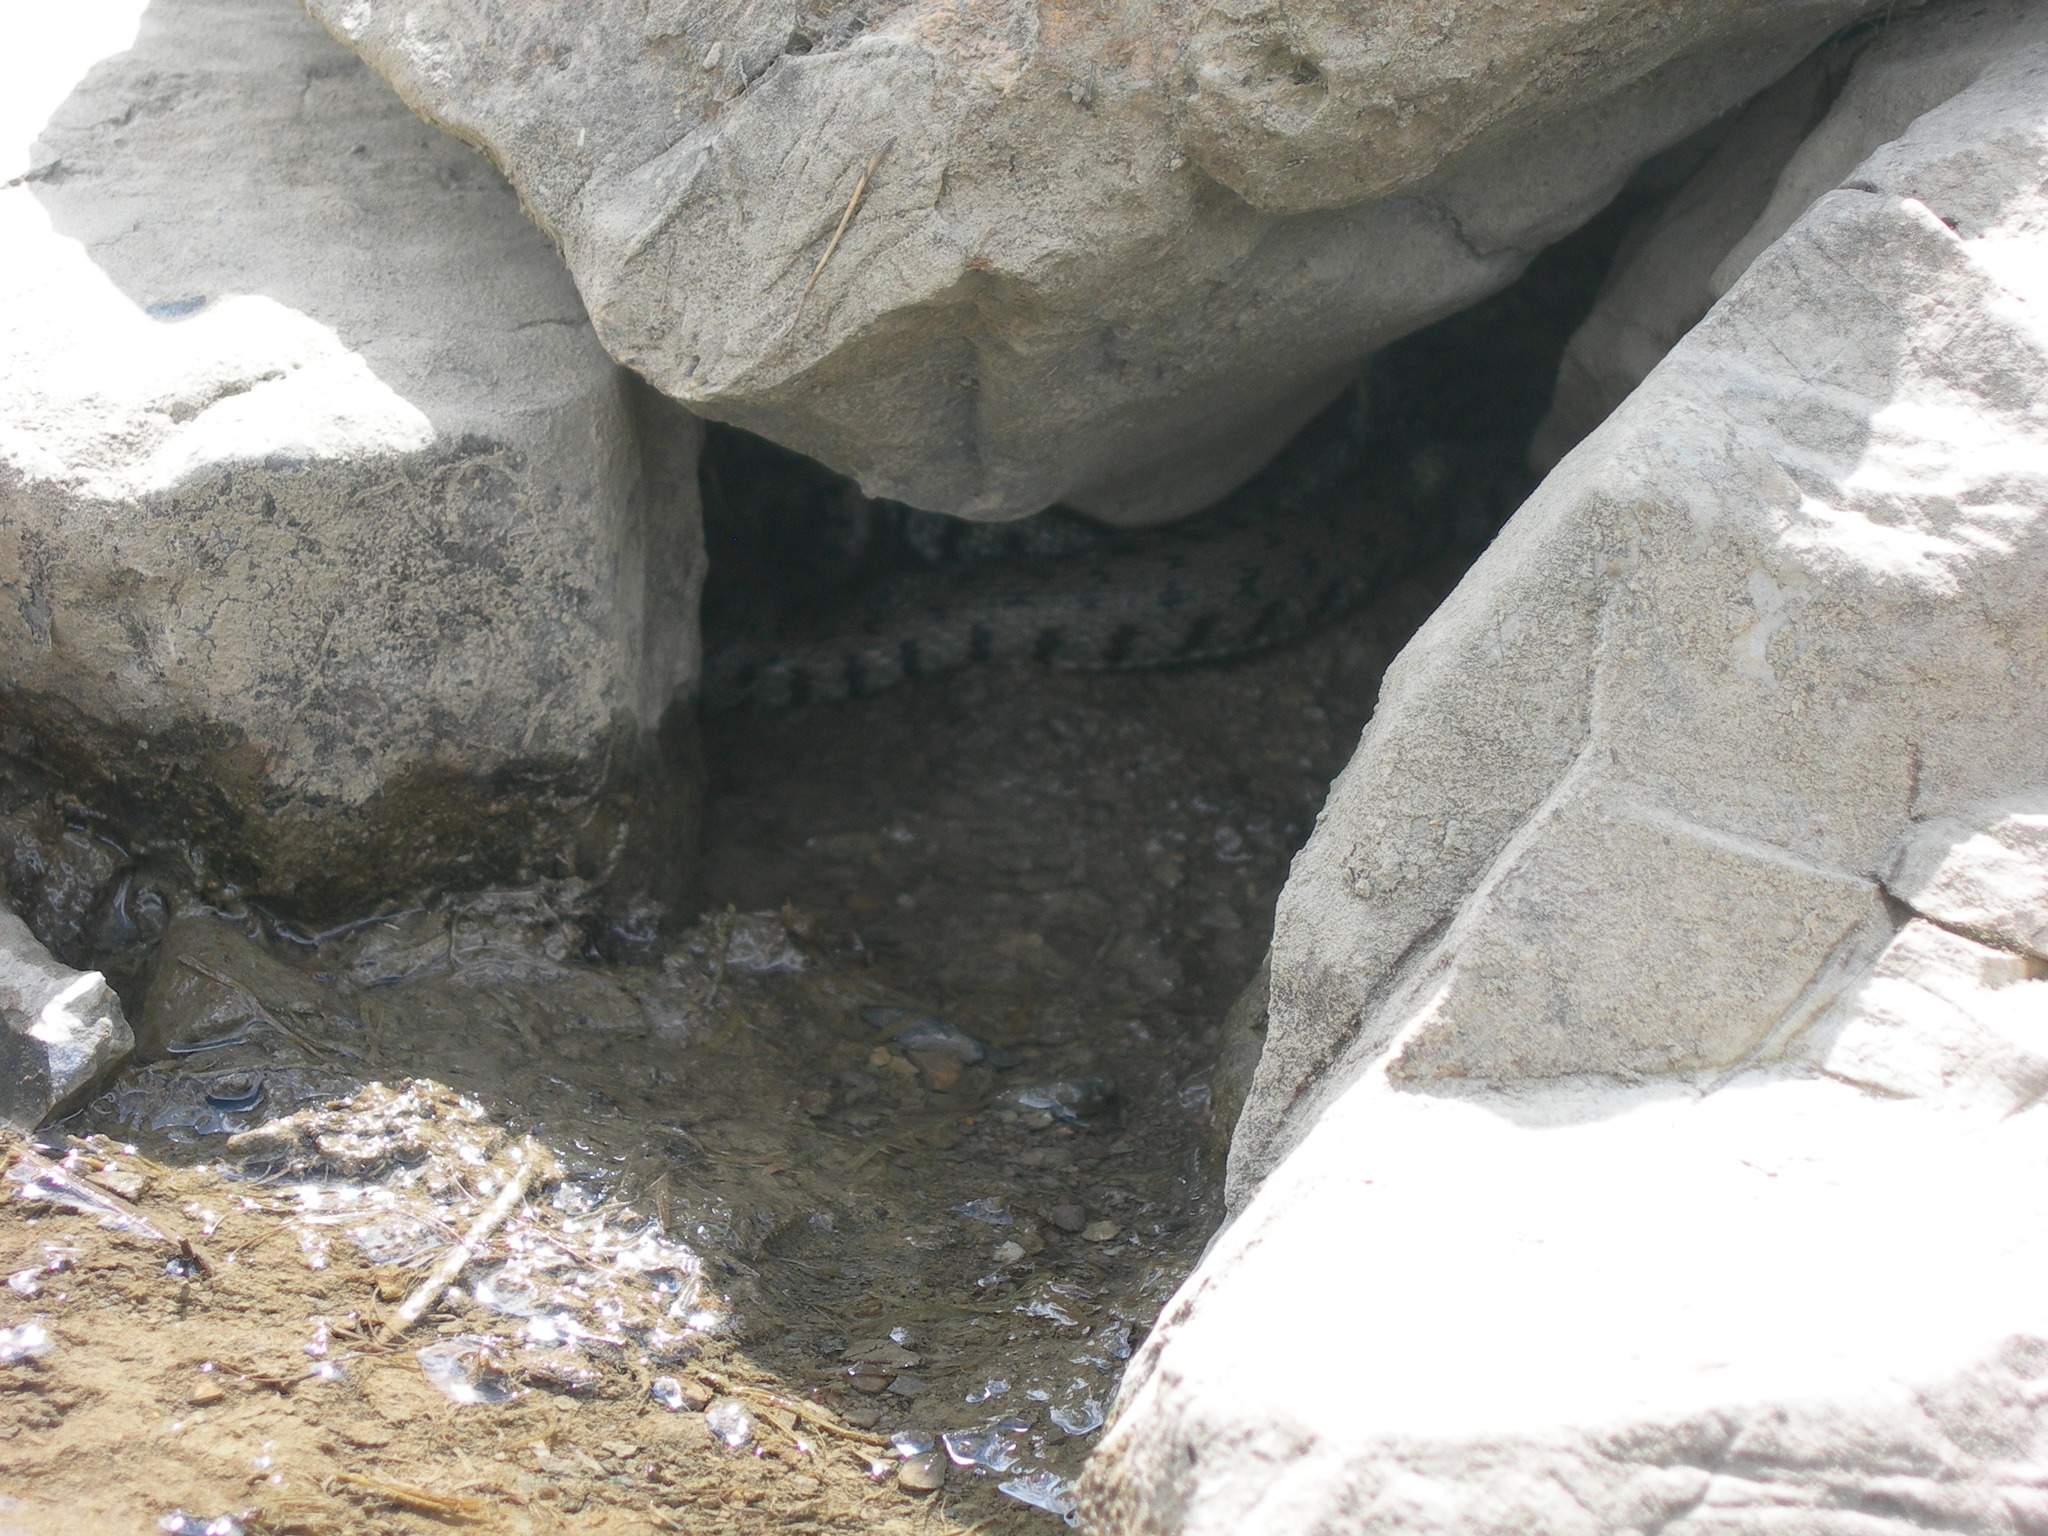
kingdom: Animalia
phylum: Chordata
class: Squamata
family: Colubridae
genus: Natrix
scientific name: Natrix helvetica
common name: Banded grass snake
